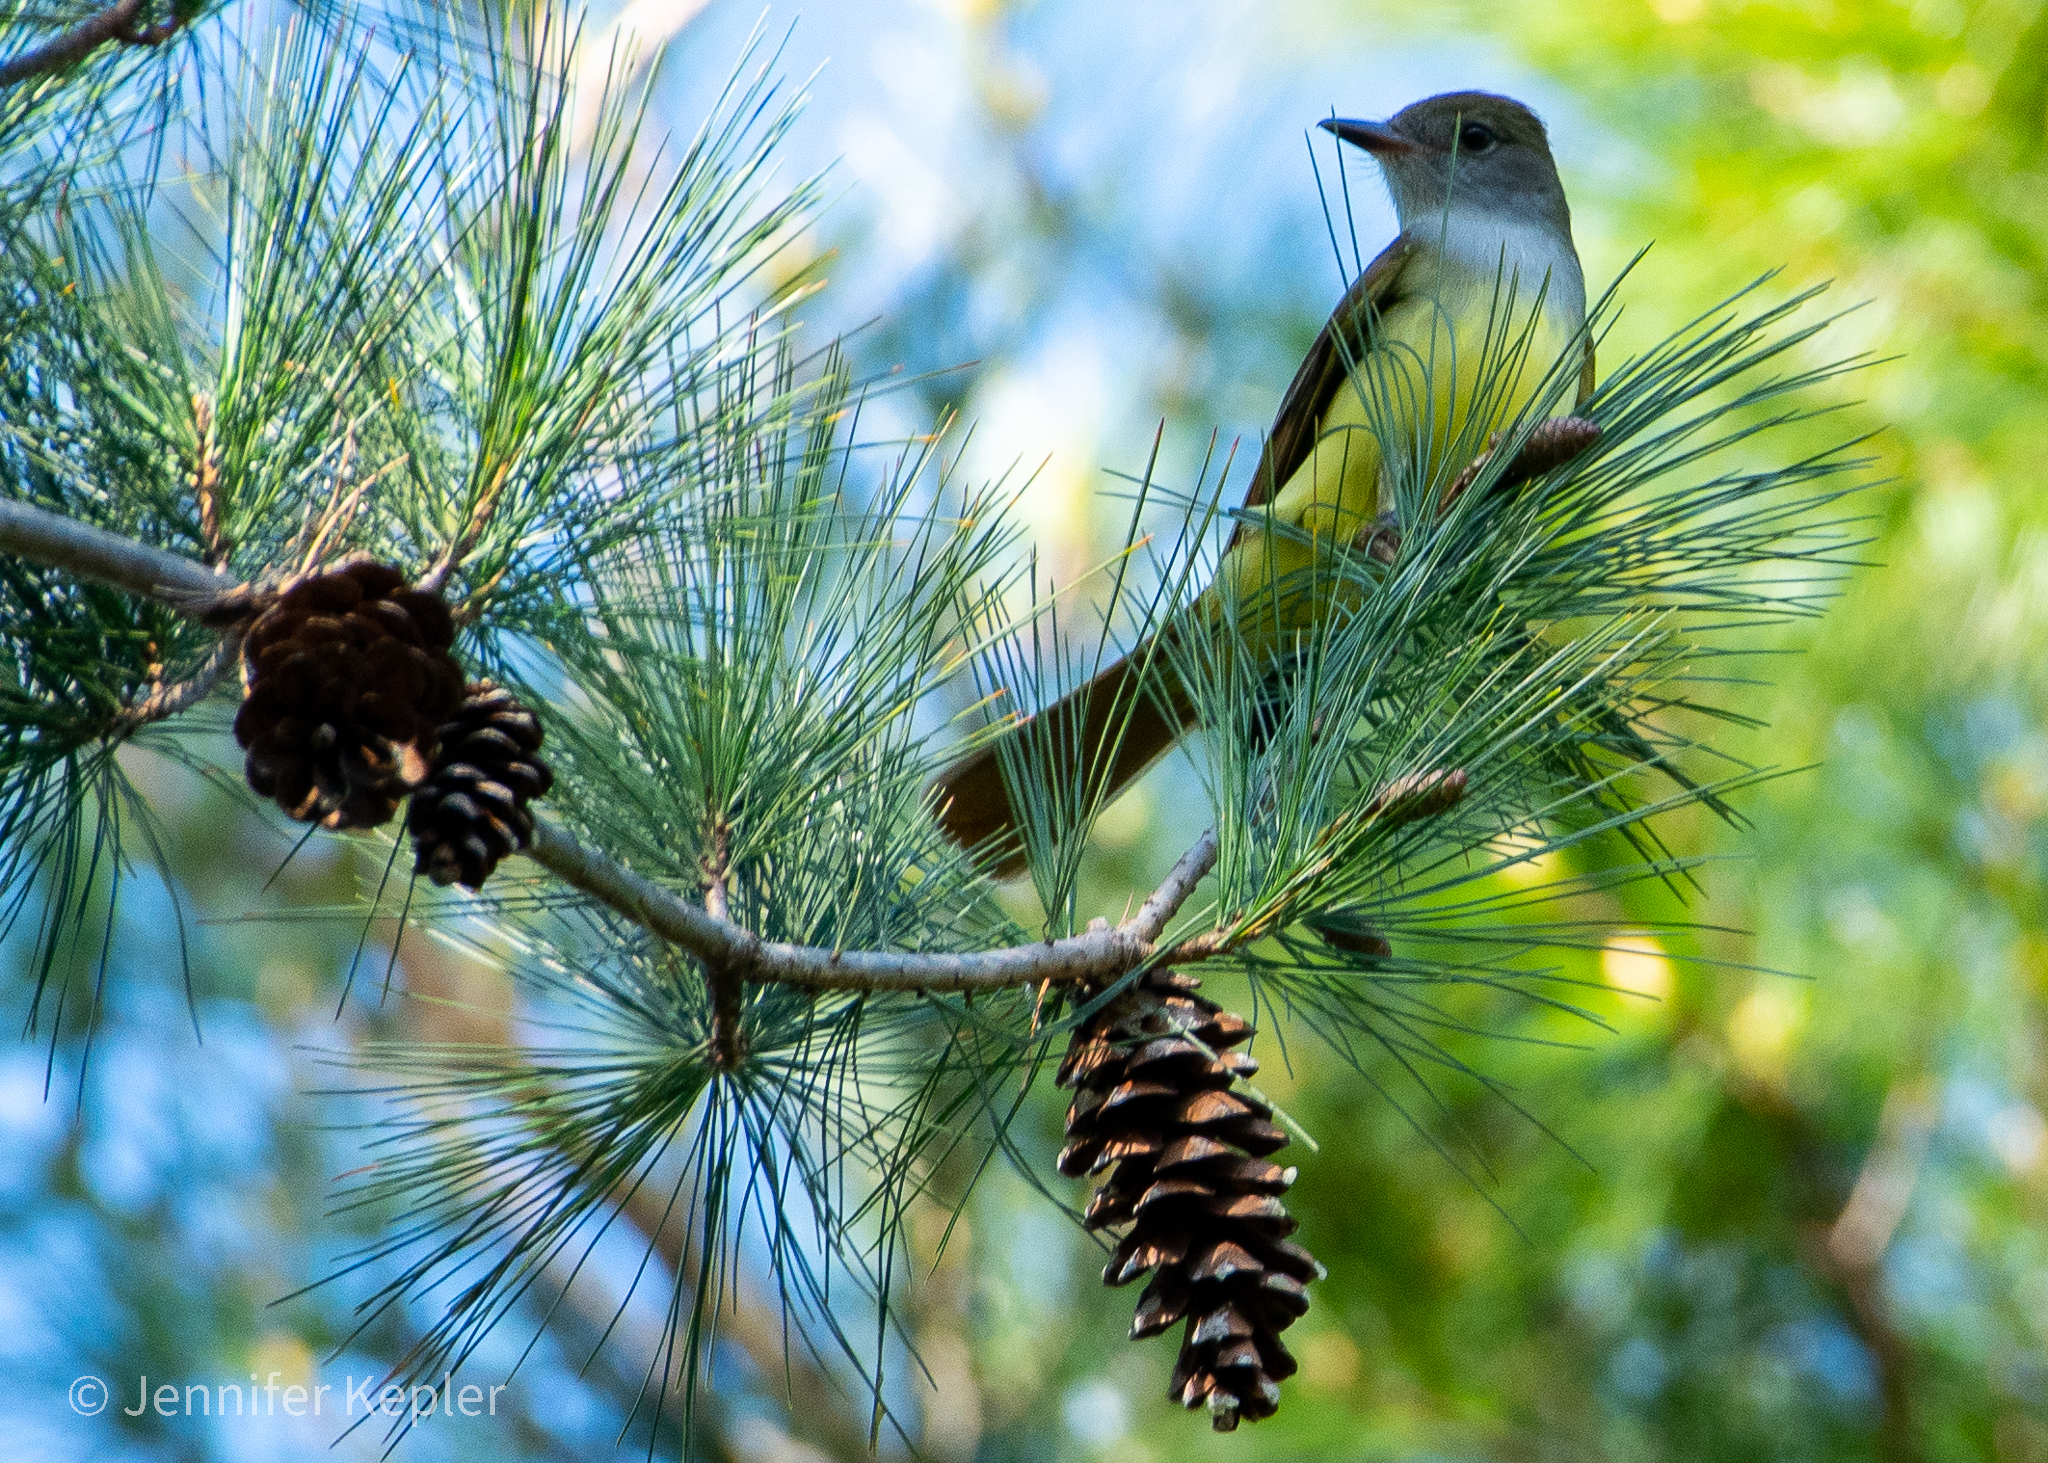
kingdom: Animalia
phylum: Chordata
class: Aves
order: Passeriformes
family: Tyrannidae
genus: Myiarchus
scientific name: Myiarchus crinitus
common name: Great crested flycatcher
